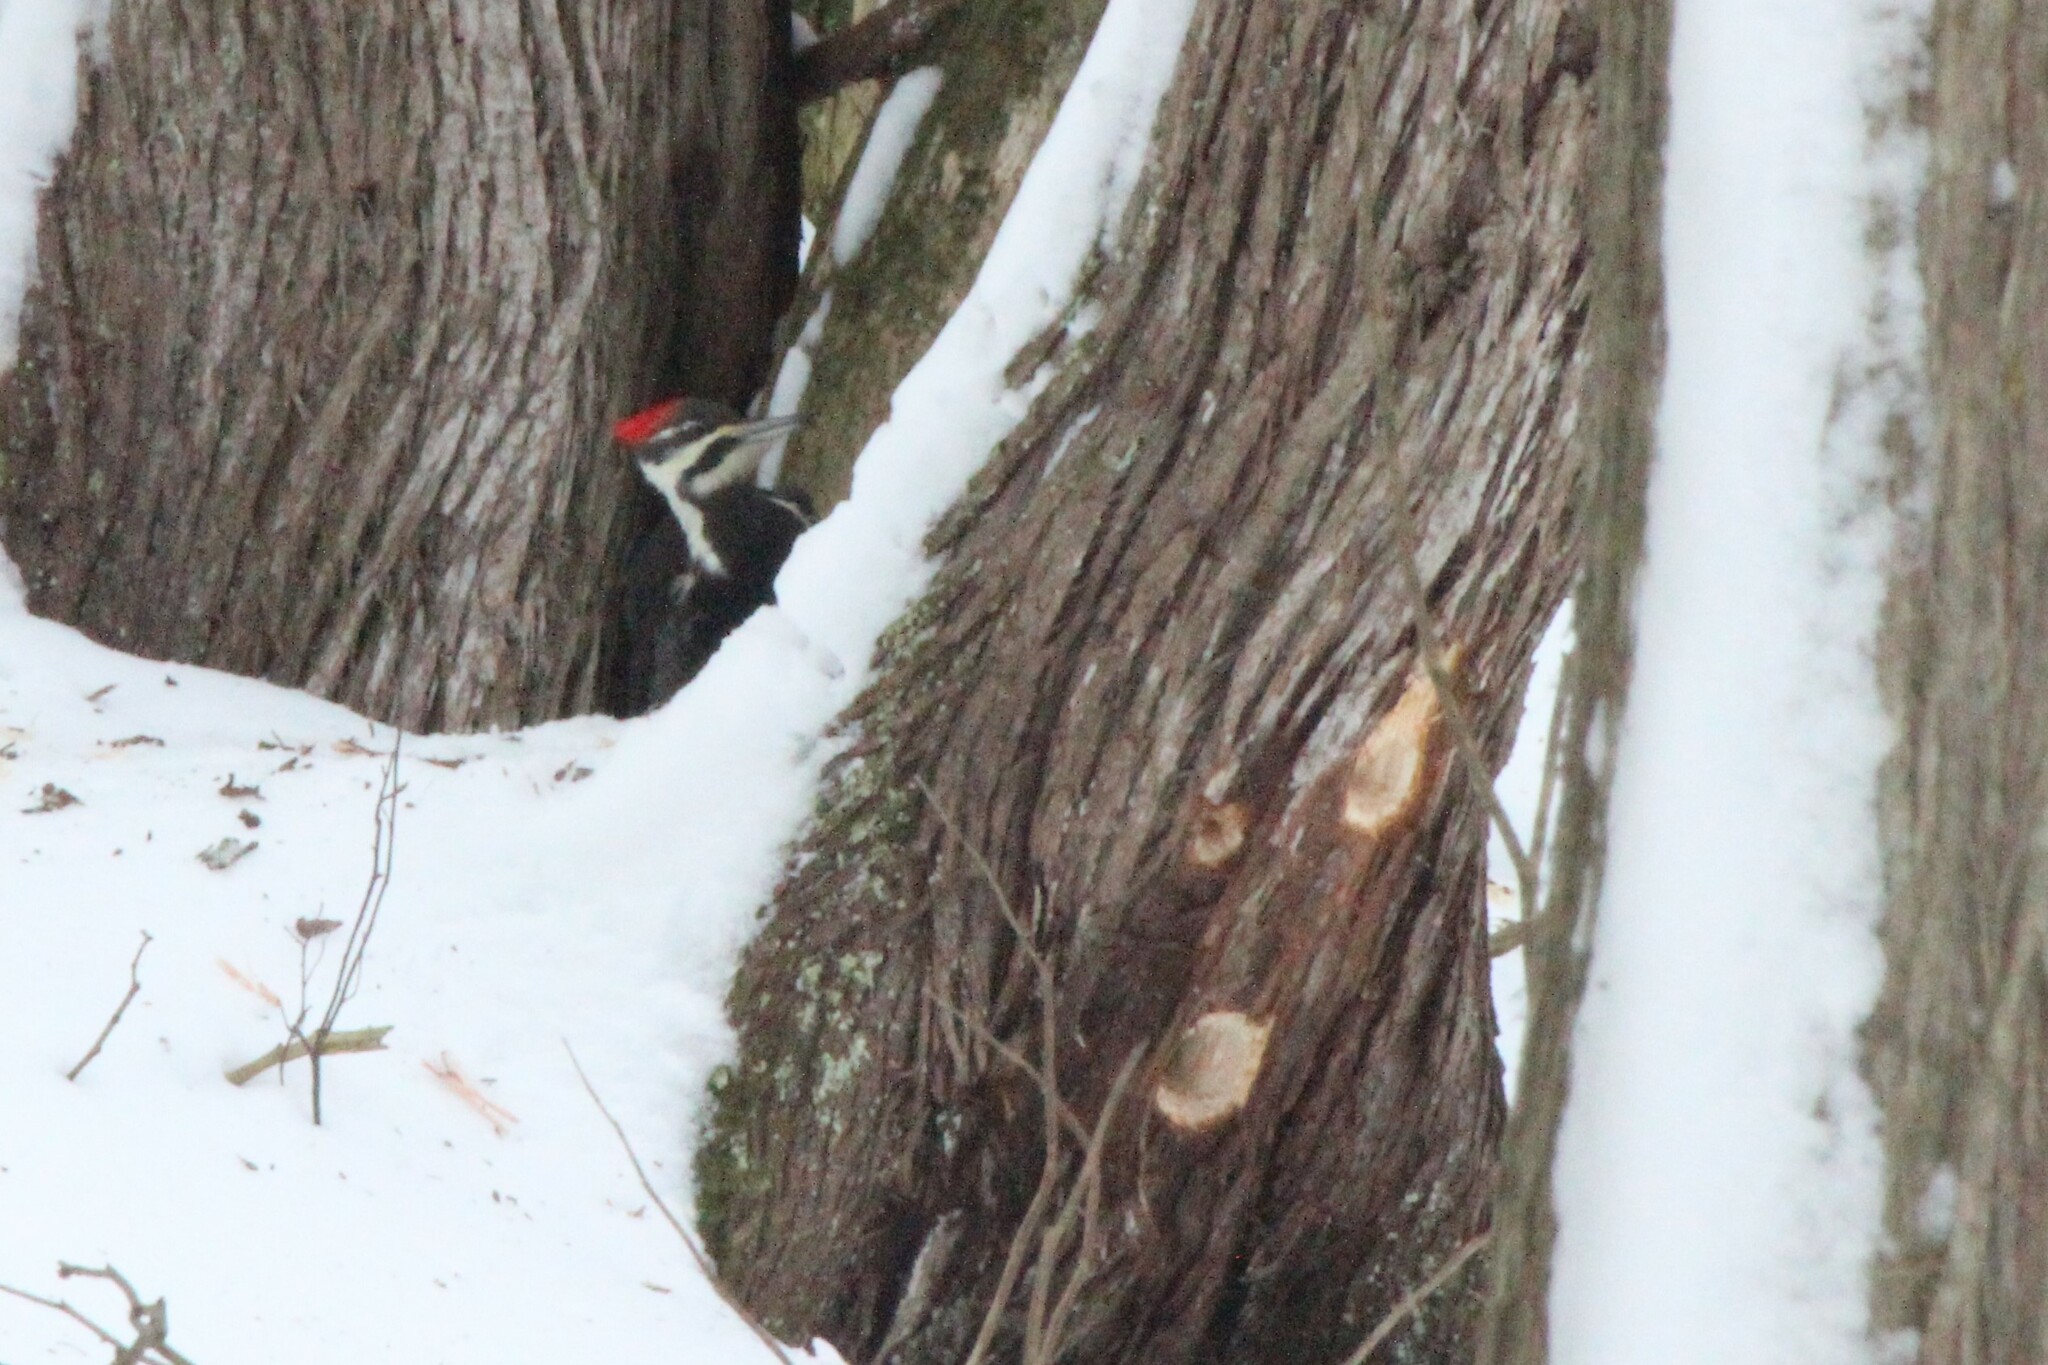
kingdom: Animalia
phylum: Chordata
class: Aves
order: Piciformes
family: Picidae
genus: Dryocopus
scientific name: Dryocopus pileatus
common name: Pileated woodpecker
